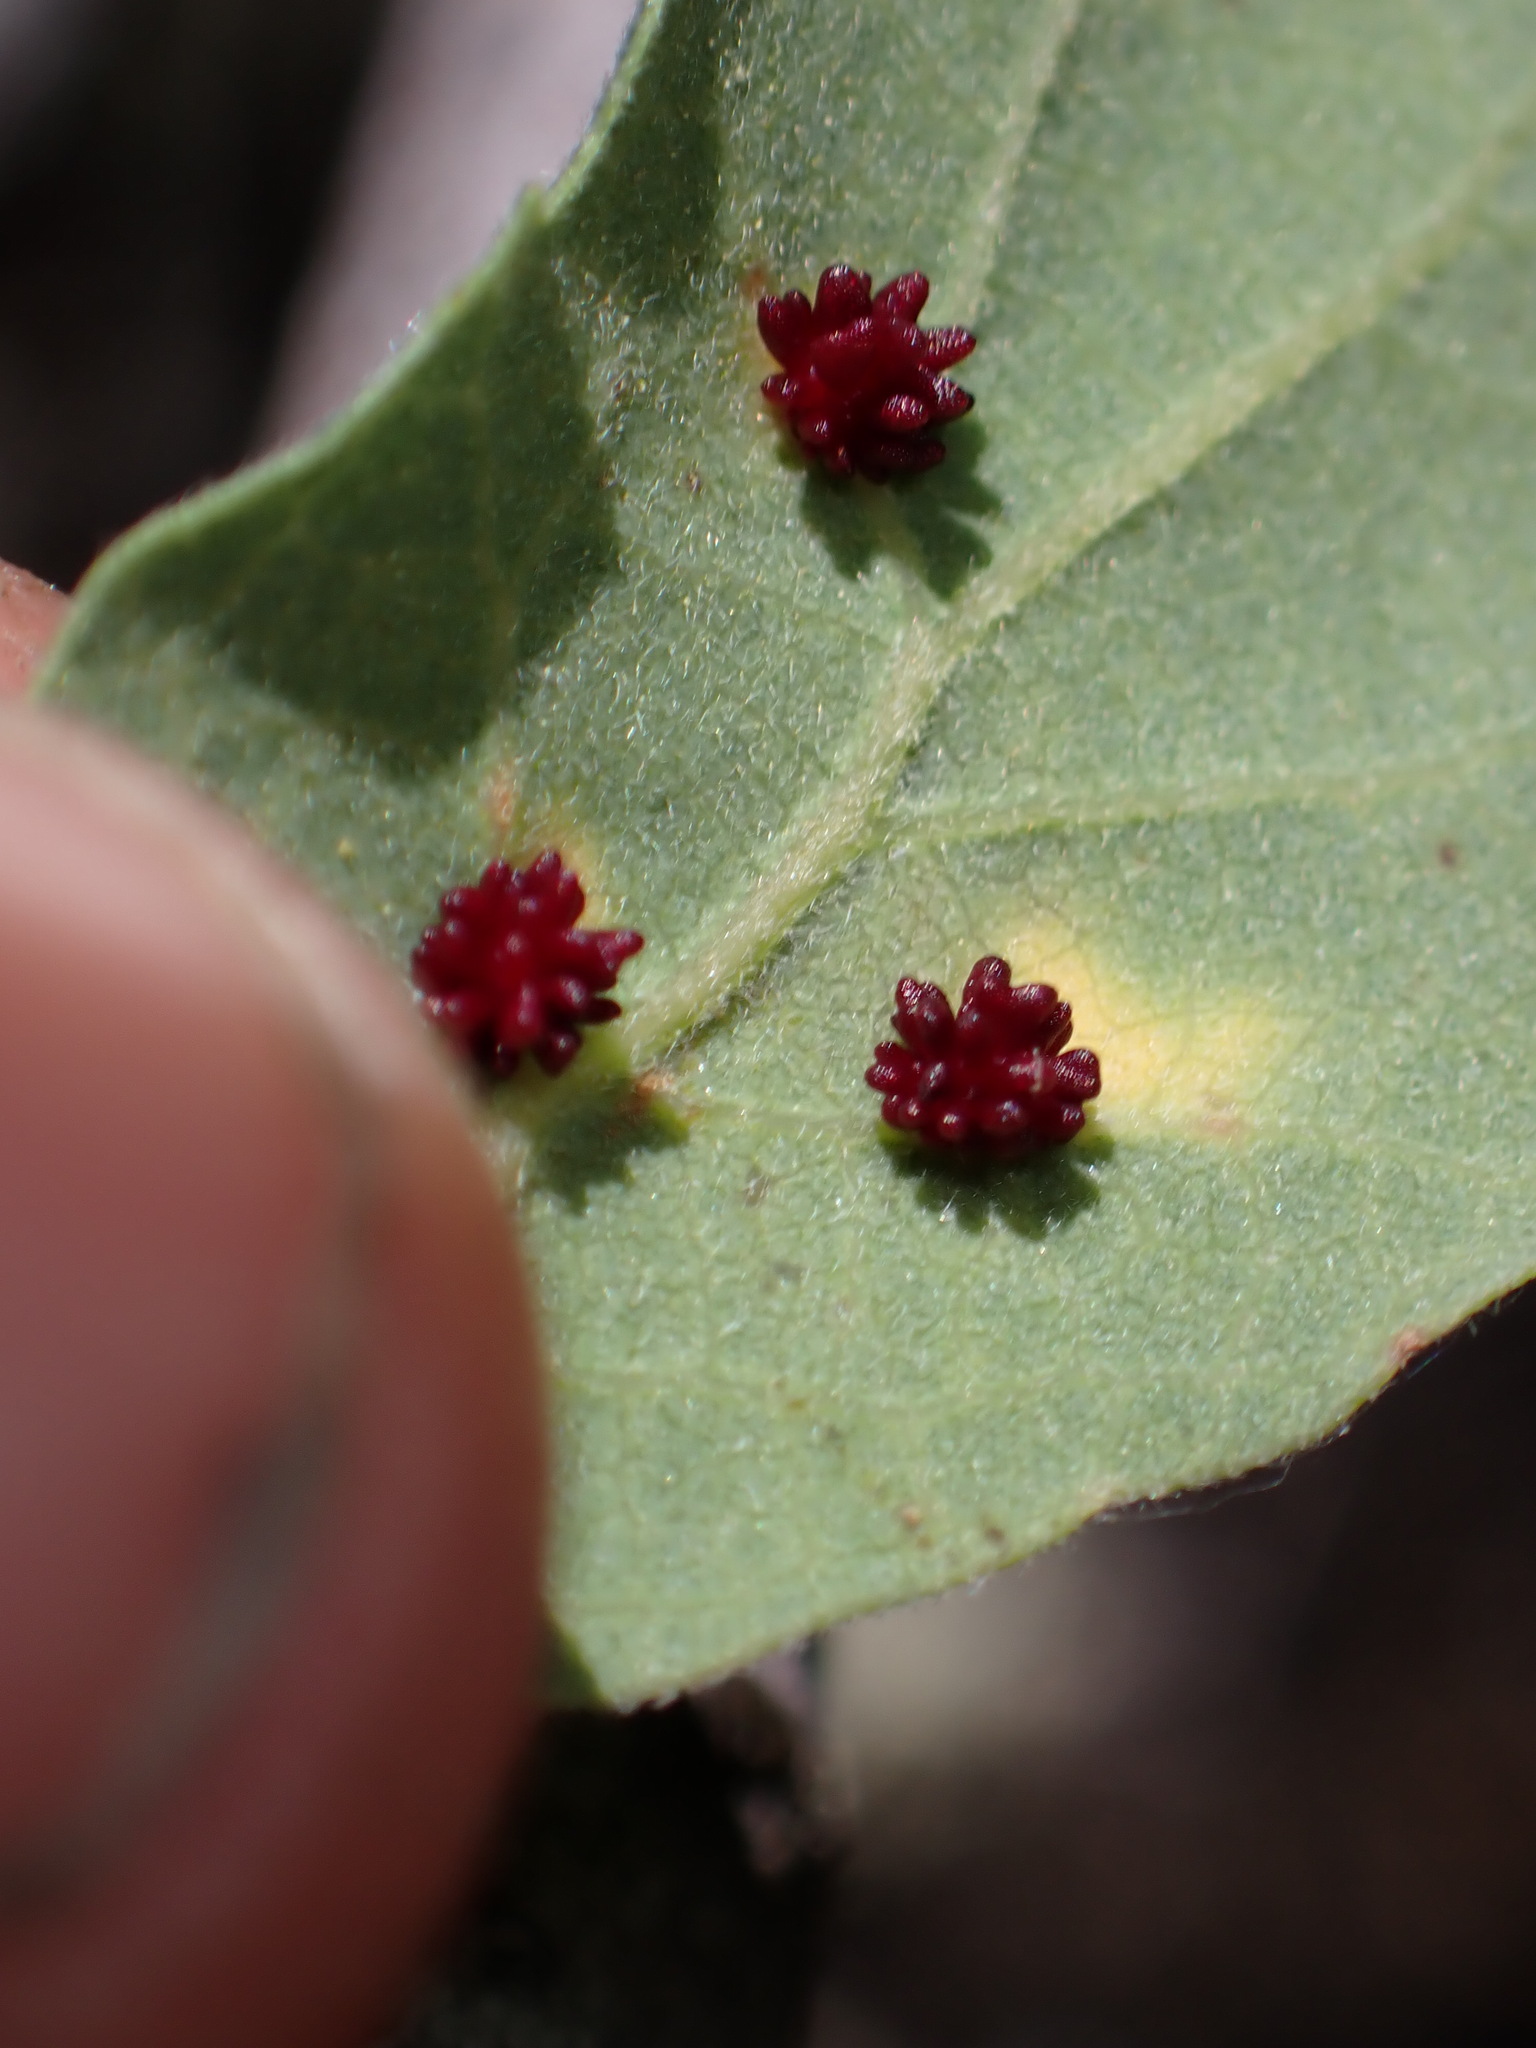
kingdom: Animalia
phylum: Arthropoda
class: Insecta
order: Hymenoptera
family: Cynipidae
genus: Cynips
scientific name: Cynips
